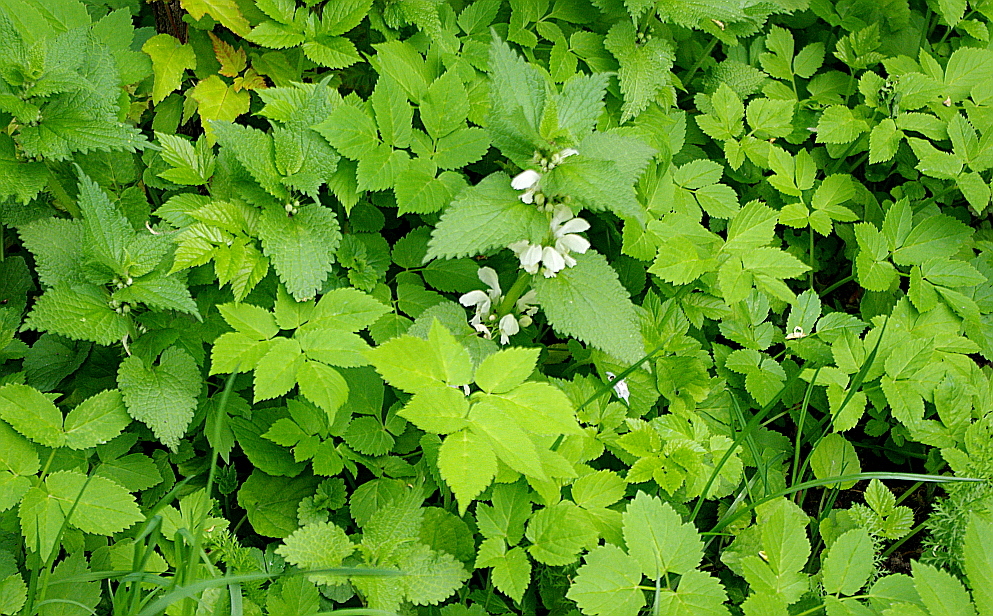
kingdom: Plantae
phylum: Tracheophyta
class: Magnoliopsida
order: Lamiales
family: Lamiaceae
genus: Lamium
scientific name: Lamium album
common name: White dead-nettle
